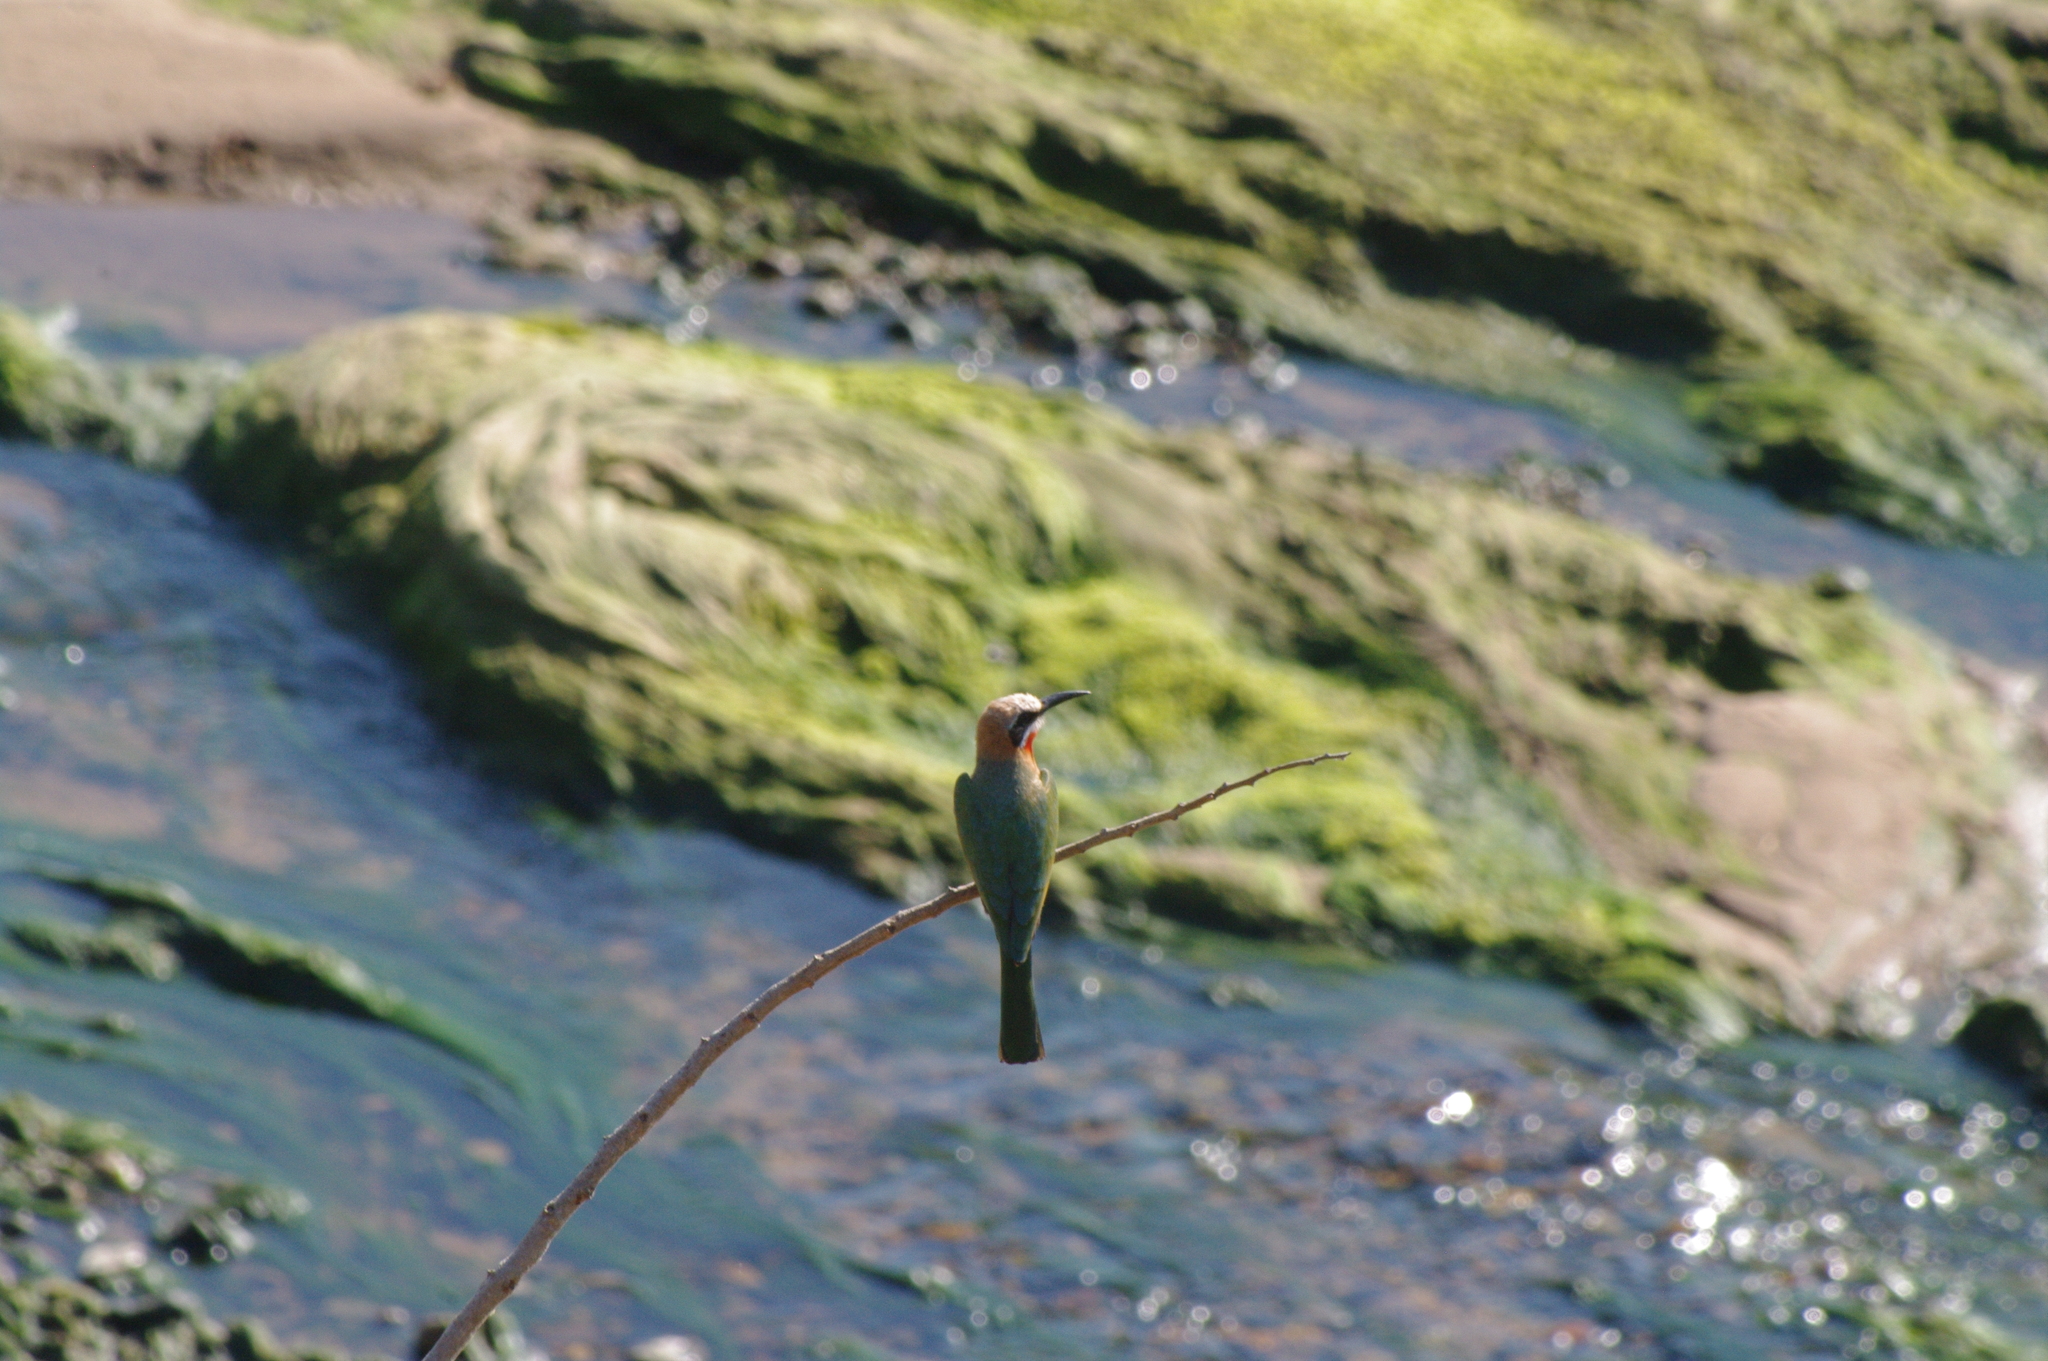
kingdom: Animalia
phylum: Chordata
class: Aves
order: Coraciiformes
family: Meropidae
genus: Merops
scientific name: Merops bullockoides
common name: White-fronted bee-eater
